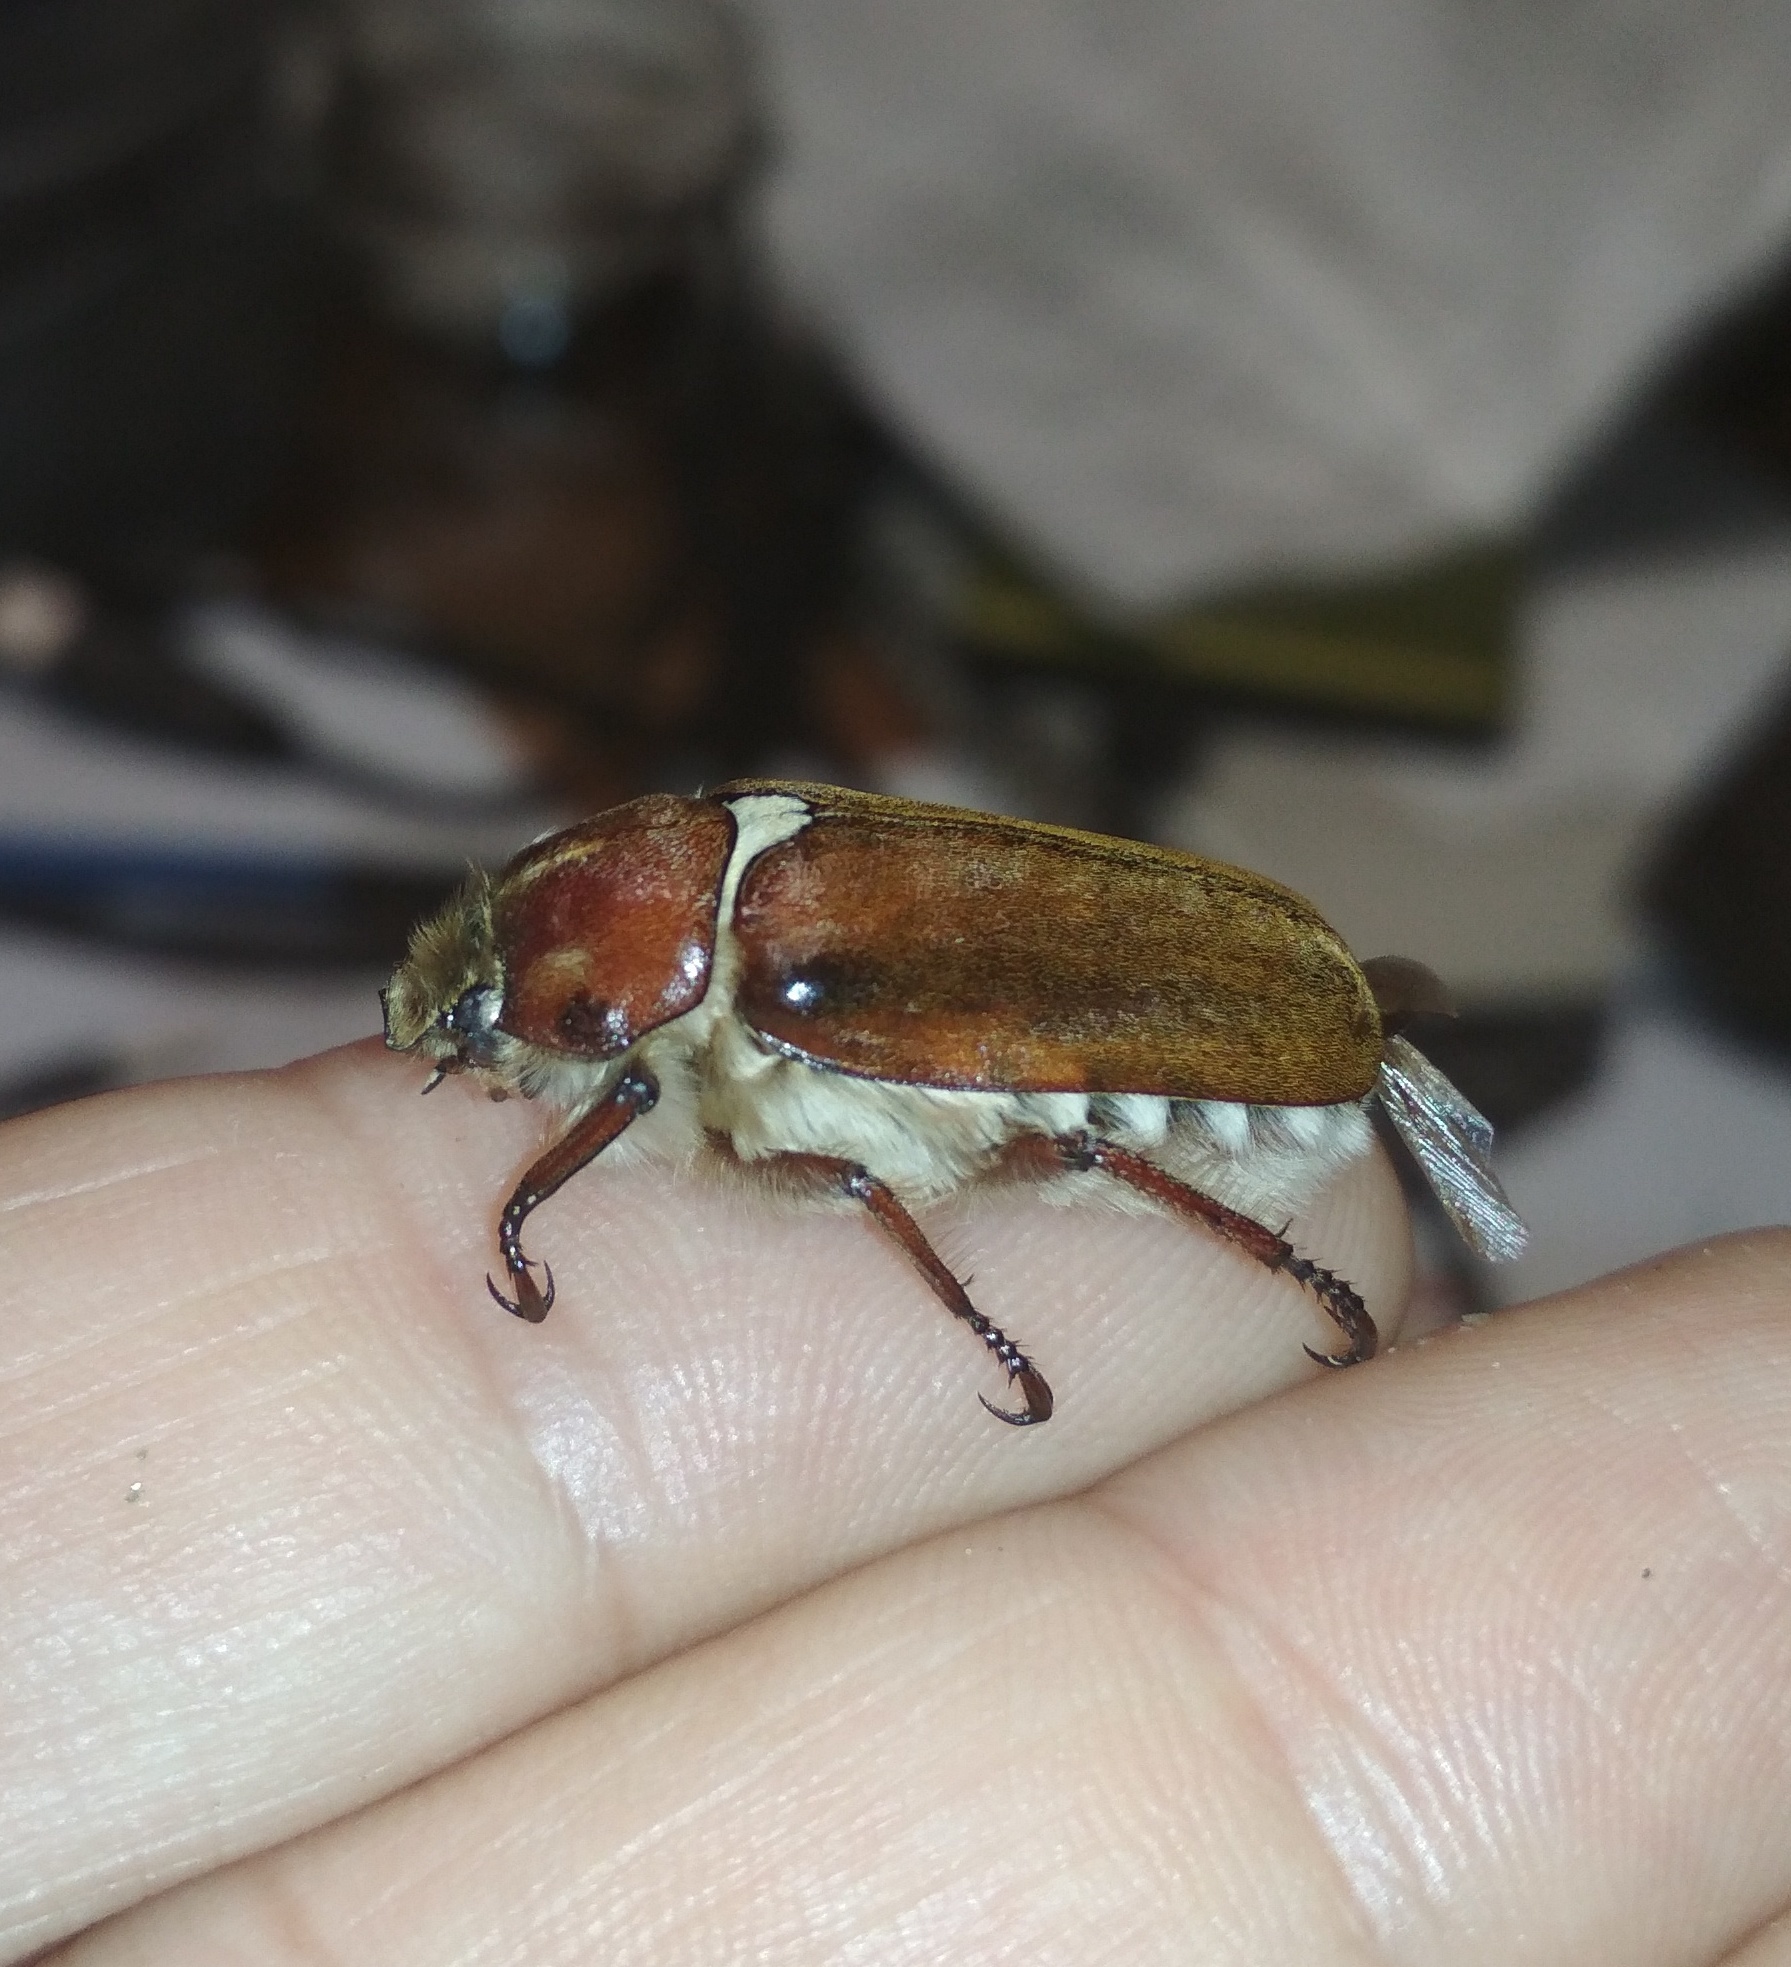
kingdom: Animalia
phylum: Arthropoda
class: Insecta
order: Coleoptera
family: Scarabaeidae
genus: Anoxia
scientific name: Anoxia villosa
